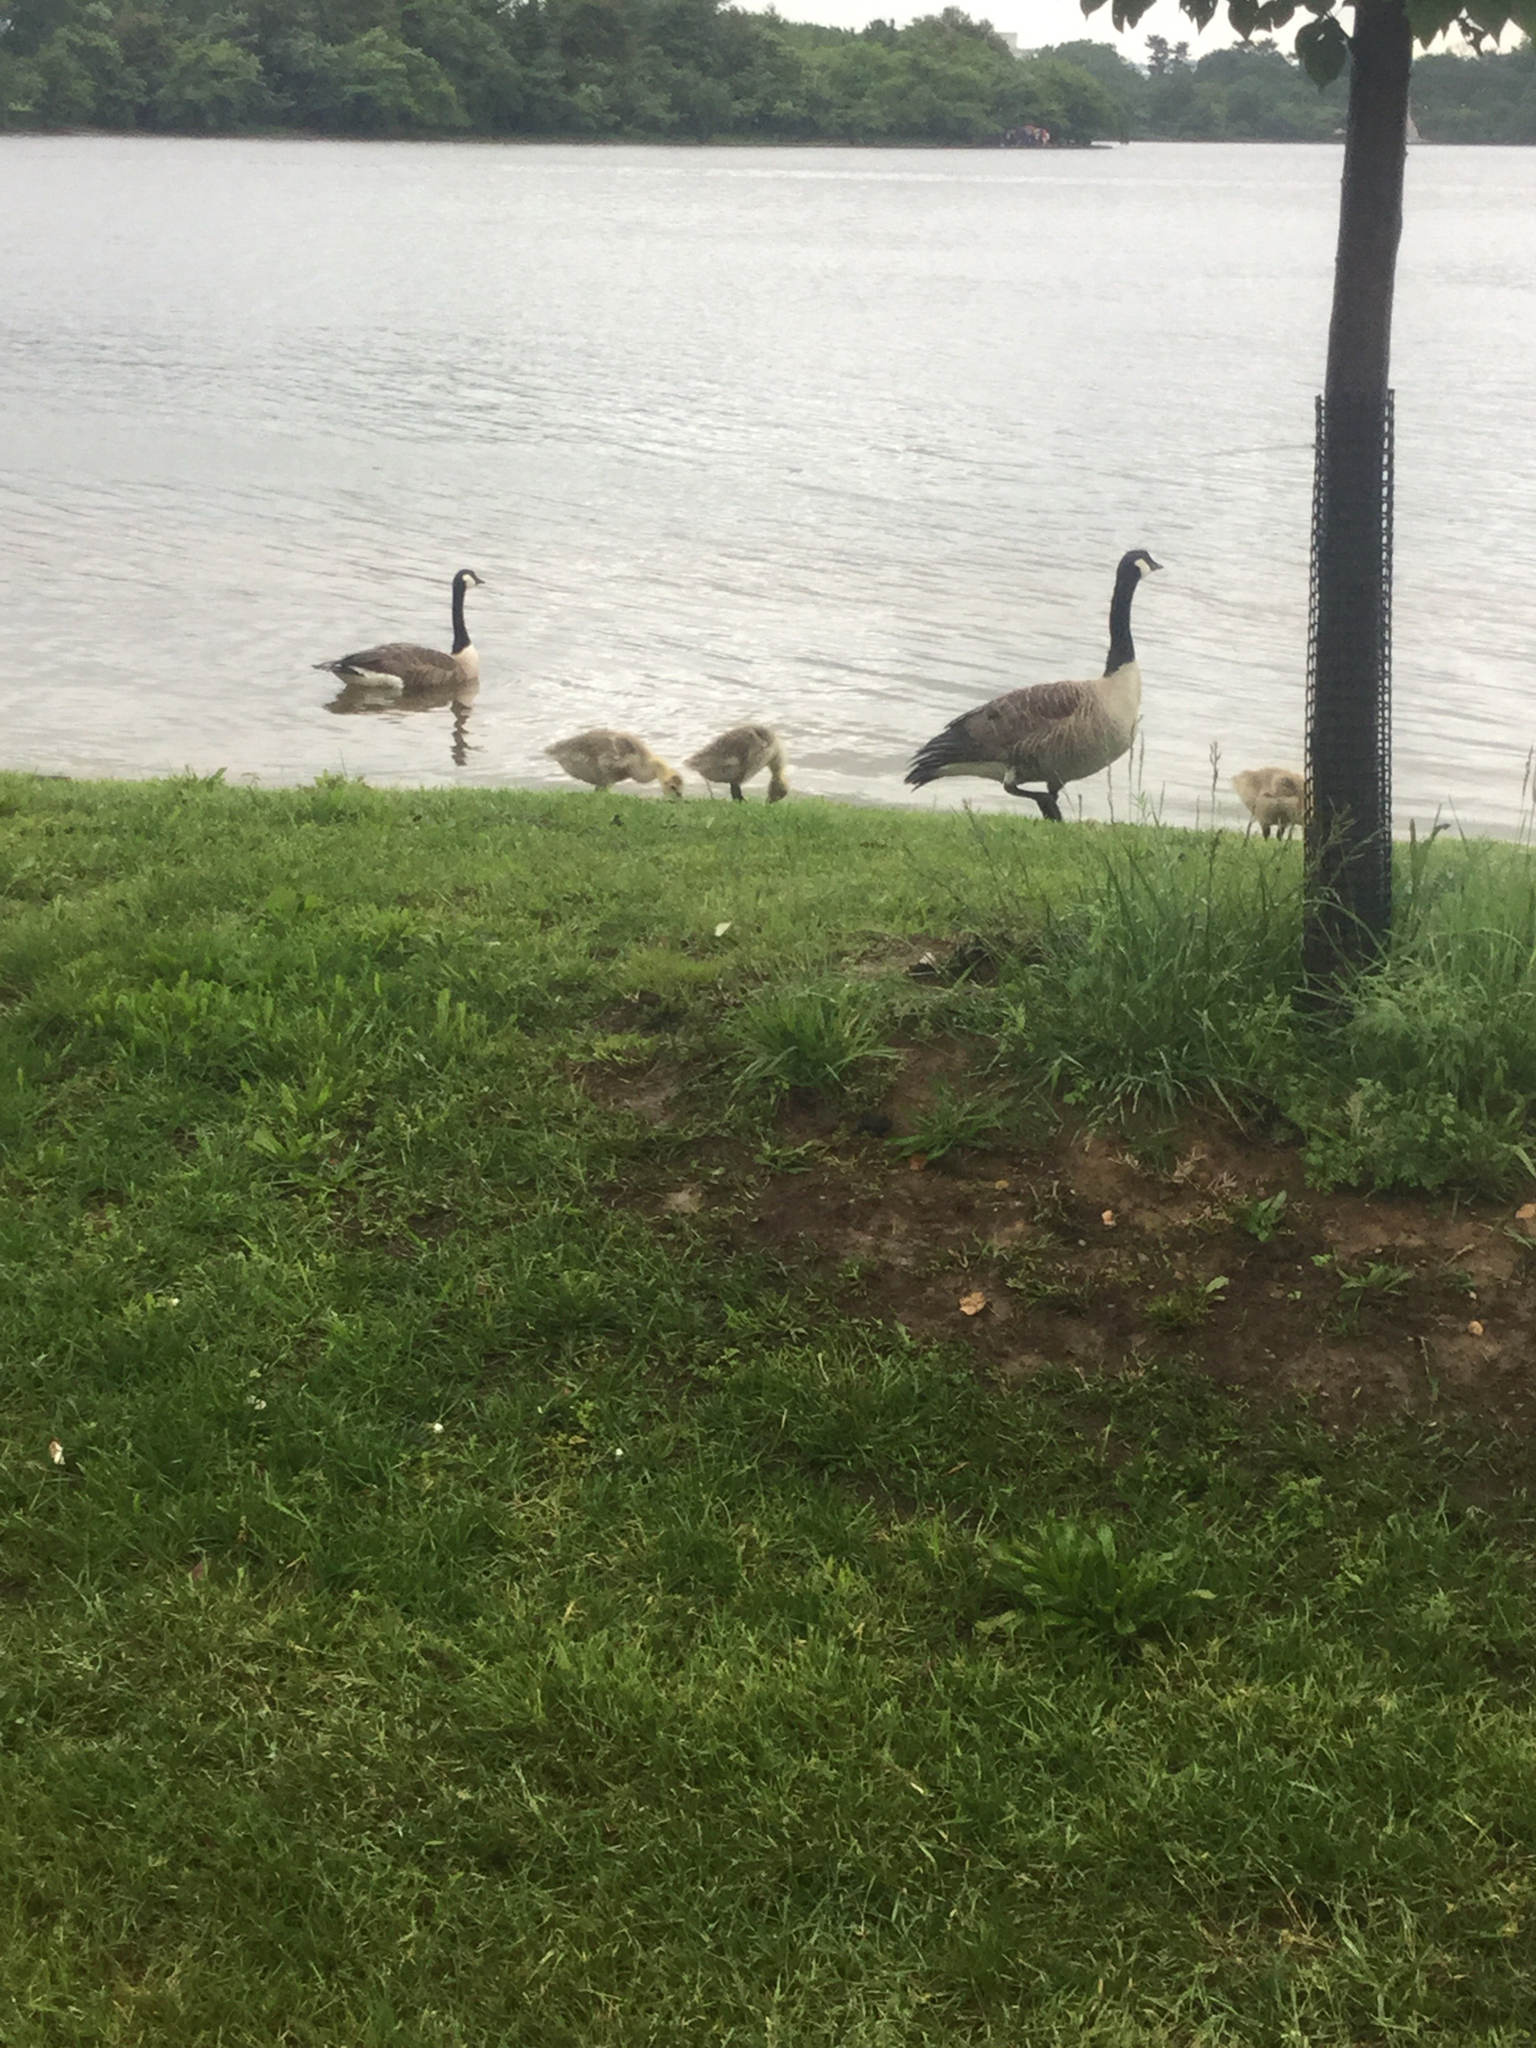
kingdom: Animalia
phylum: Chordata
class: Aves
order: Anseriformes
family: Anatidae
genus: Branta
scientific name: Branta canadensis
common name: Canada goose
